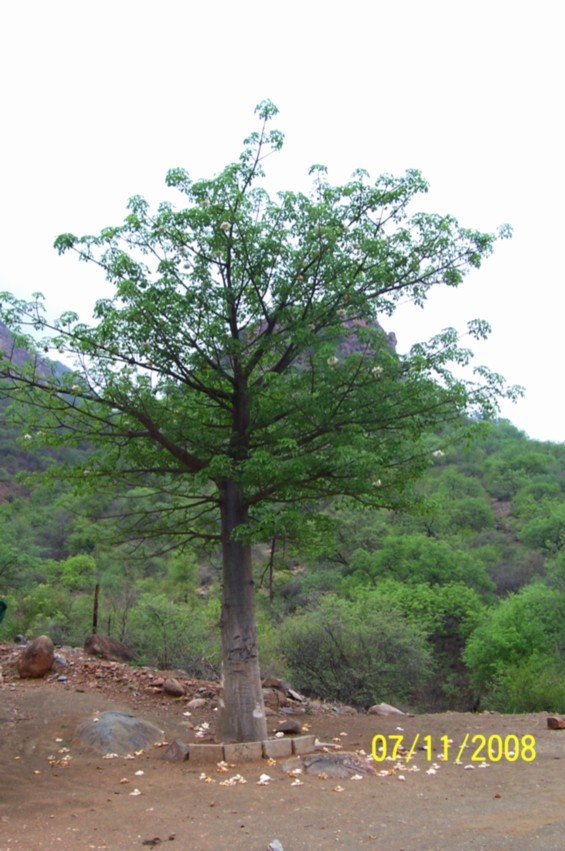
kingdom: Plantae
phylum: Tracheophyta
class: Magnoliopsida
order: Malvales
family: Malvaceae
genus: Adansonia
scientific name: Adansonia digitata
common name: Dead-rat-tree
